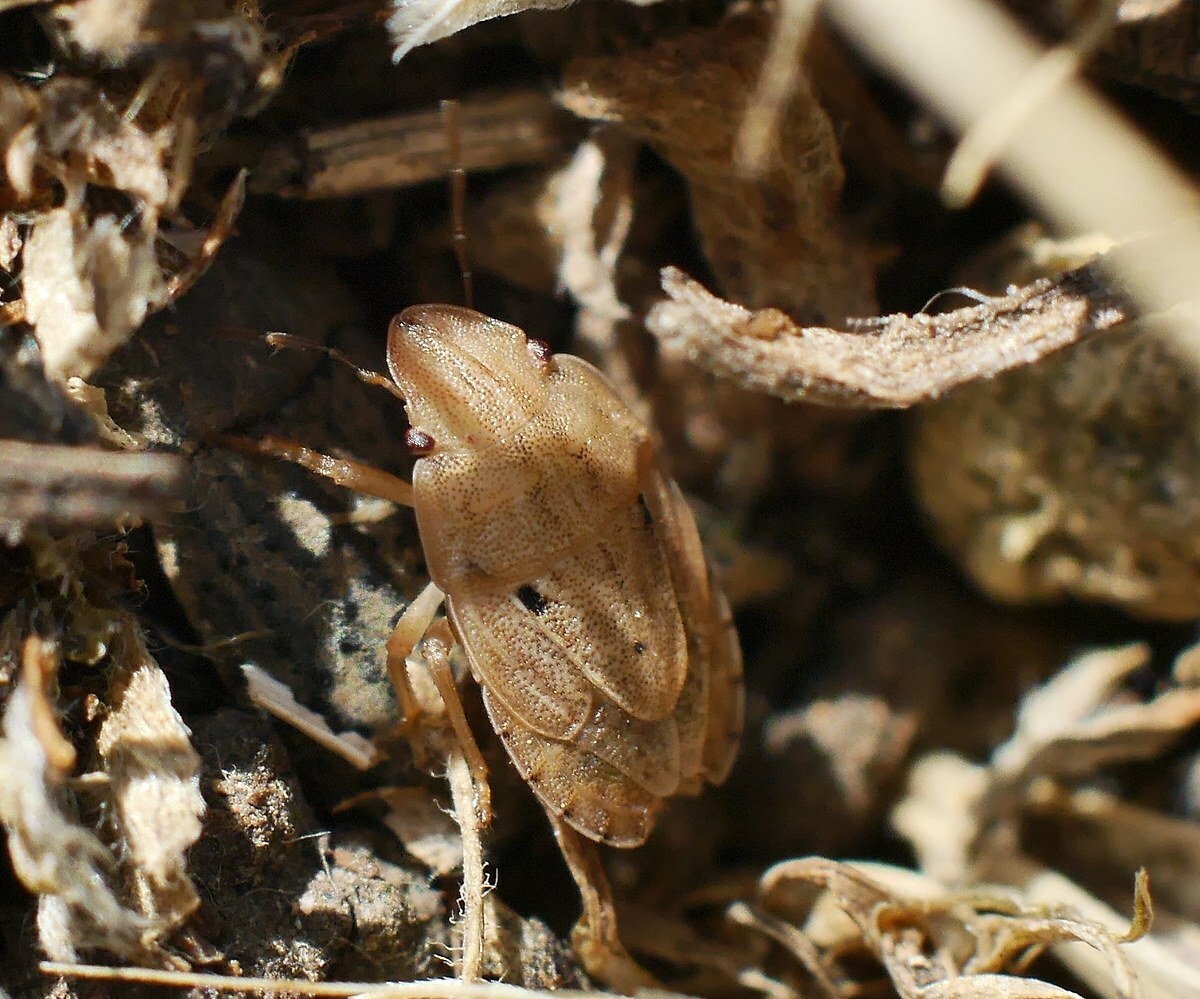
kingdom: Animalia
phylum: Arthropoda
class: Insecta
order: Hemiptera
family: Pentatomidae
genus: Sciocoris
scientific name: Sciocoris sulcatus
